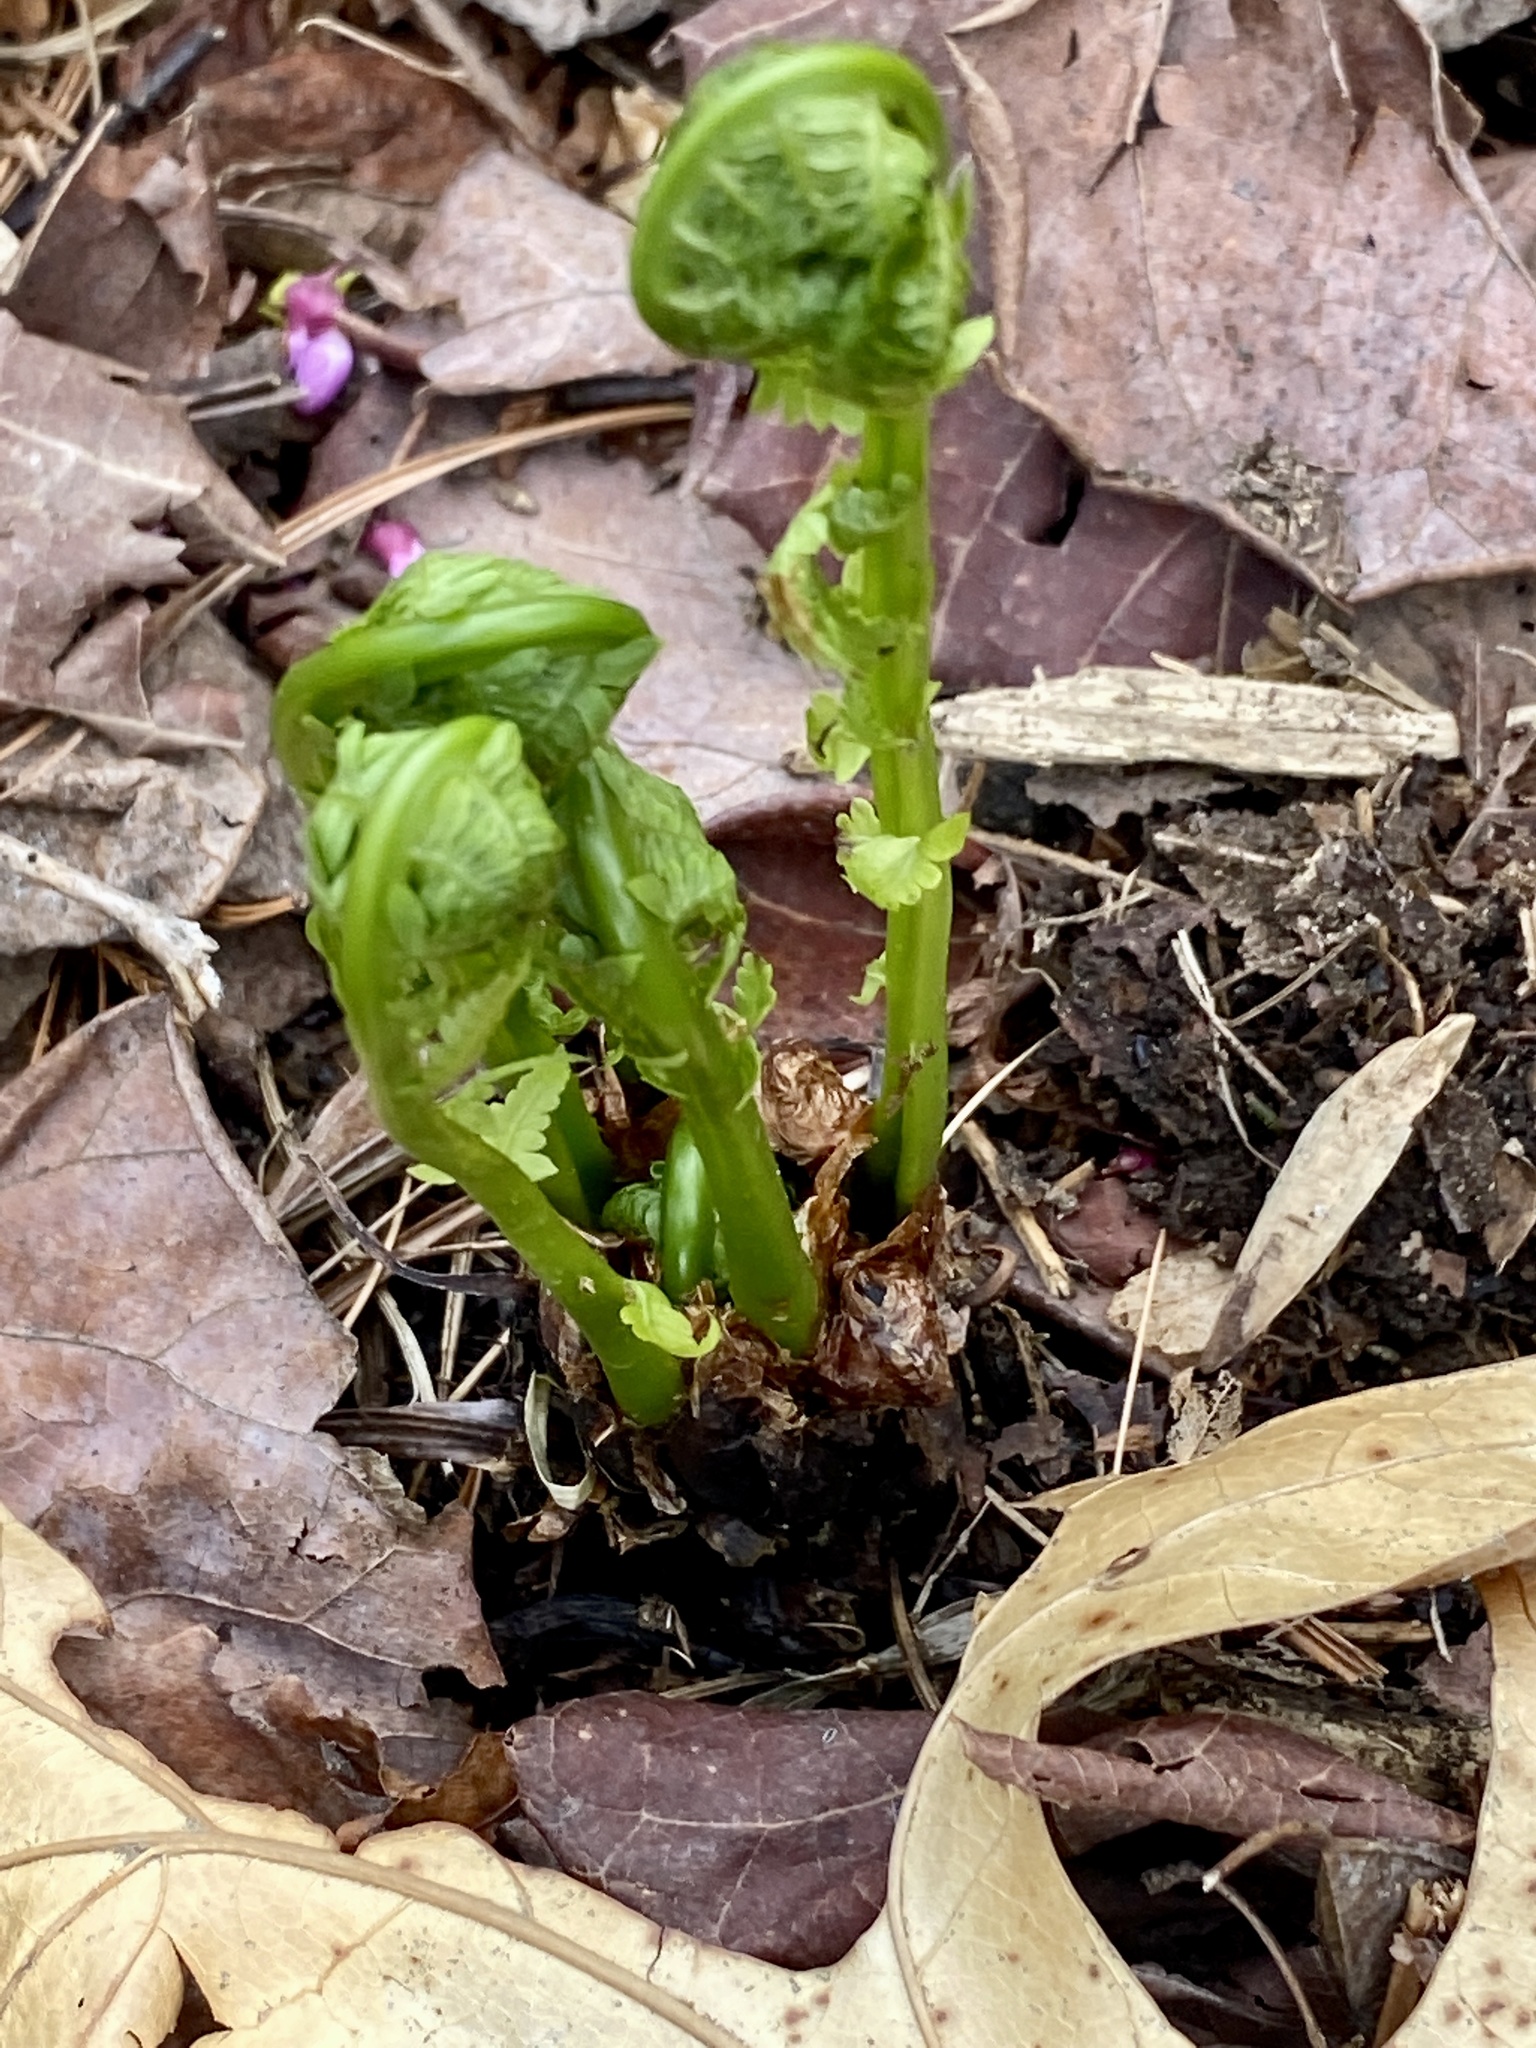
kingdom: Plantae
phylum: Tracheophyta
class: Polypodiopsida
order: Polypodiales
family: Onocleaceae
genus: Matteuccia
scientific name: Matteuccia struthiopteris
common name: Ostrich fern
